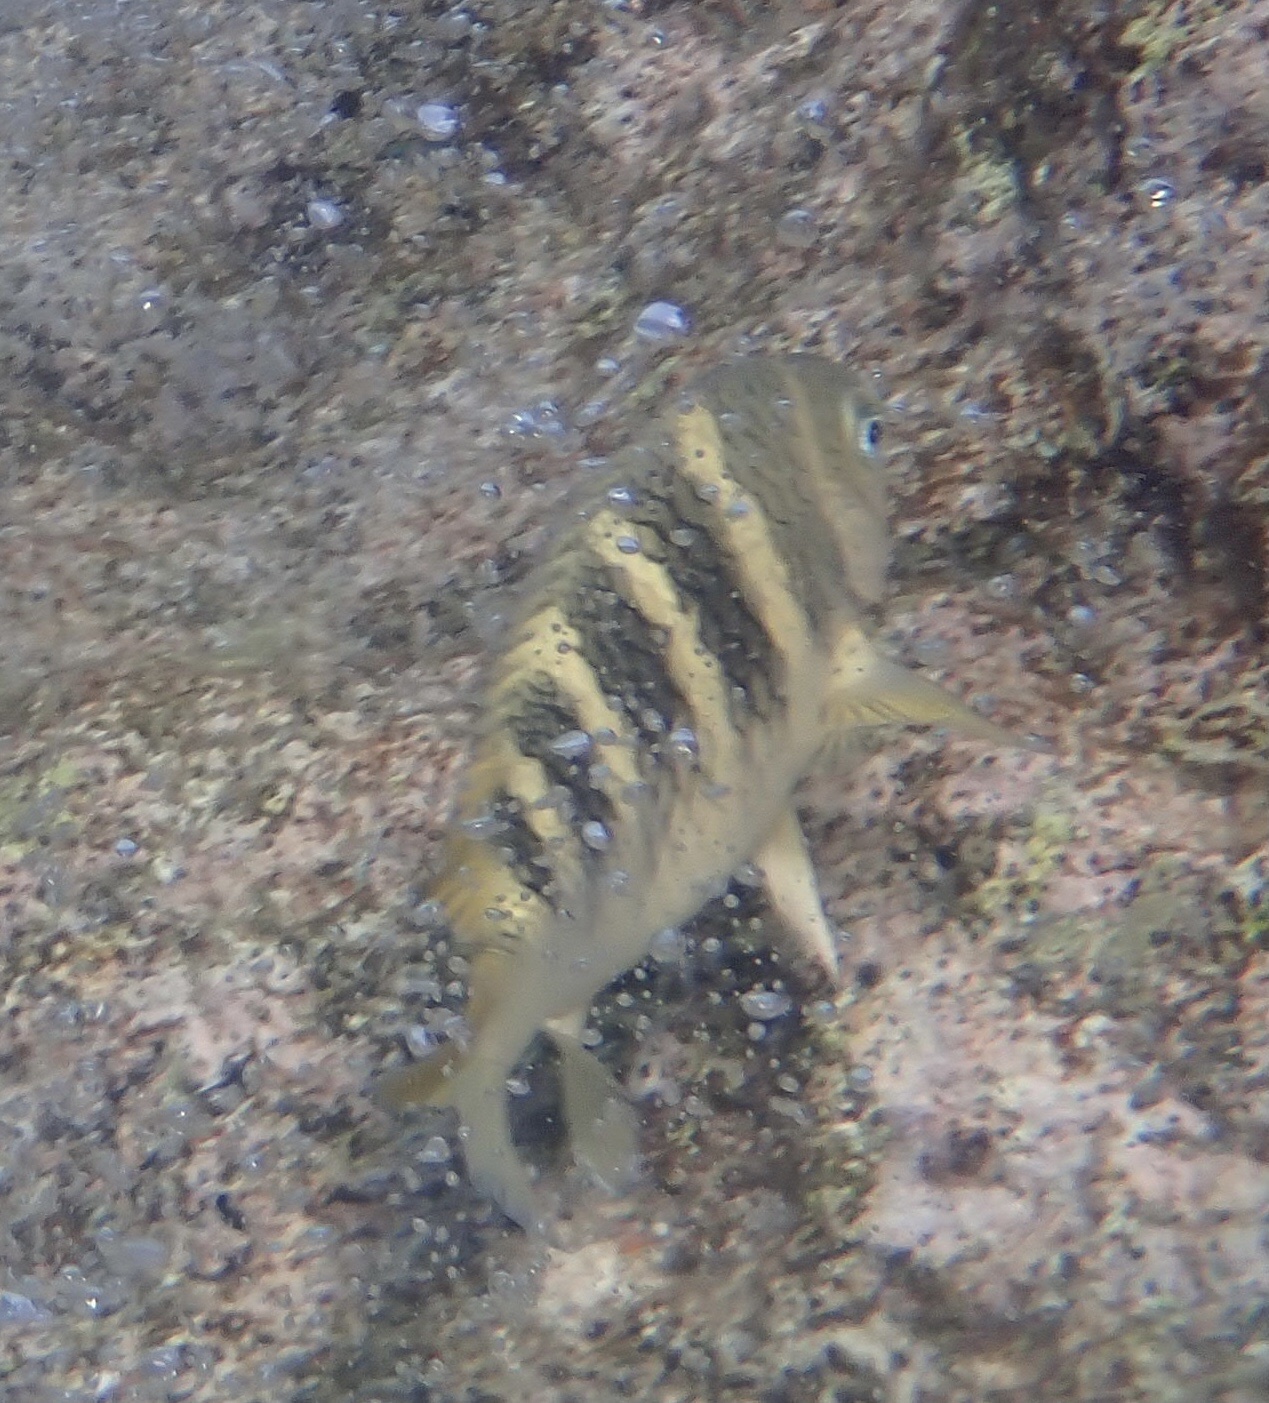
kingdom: Animalia
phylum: Chordata
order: Perciformes
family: Pomacentridae
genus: Abudefduf
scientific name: Abudefduf taurus
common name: Night sergeant
